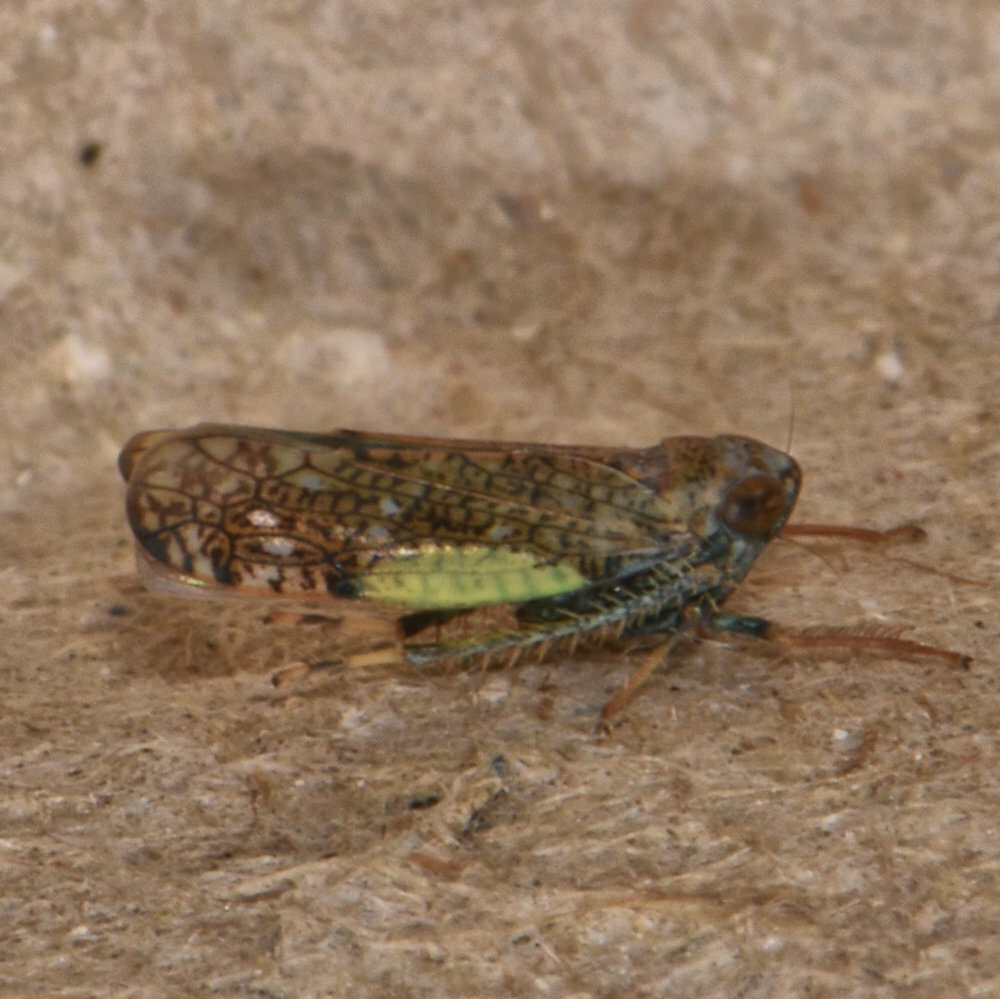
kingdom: Animalia
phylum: Arthropoda
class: Insecta
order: Hemiptera
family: Cicadellidae
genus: Orientus
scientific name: Orientus ishidae
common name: Japanese leafhopper
